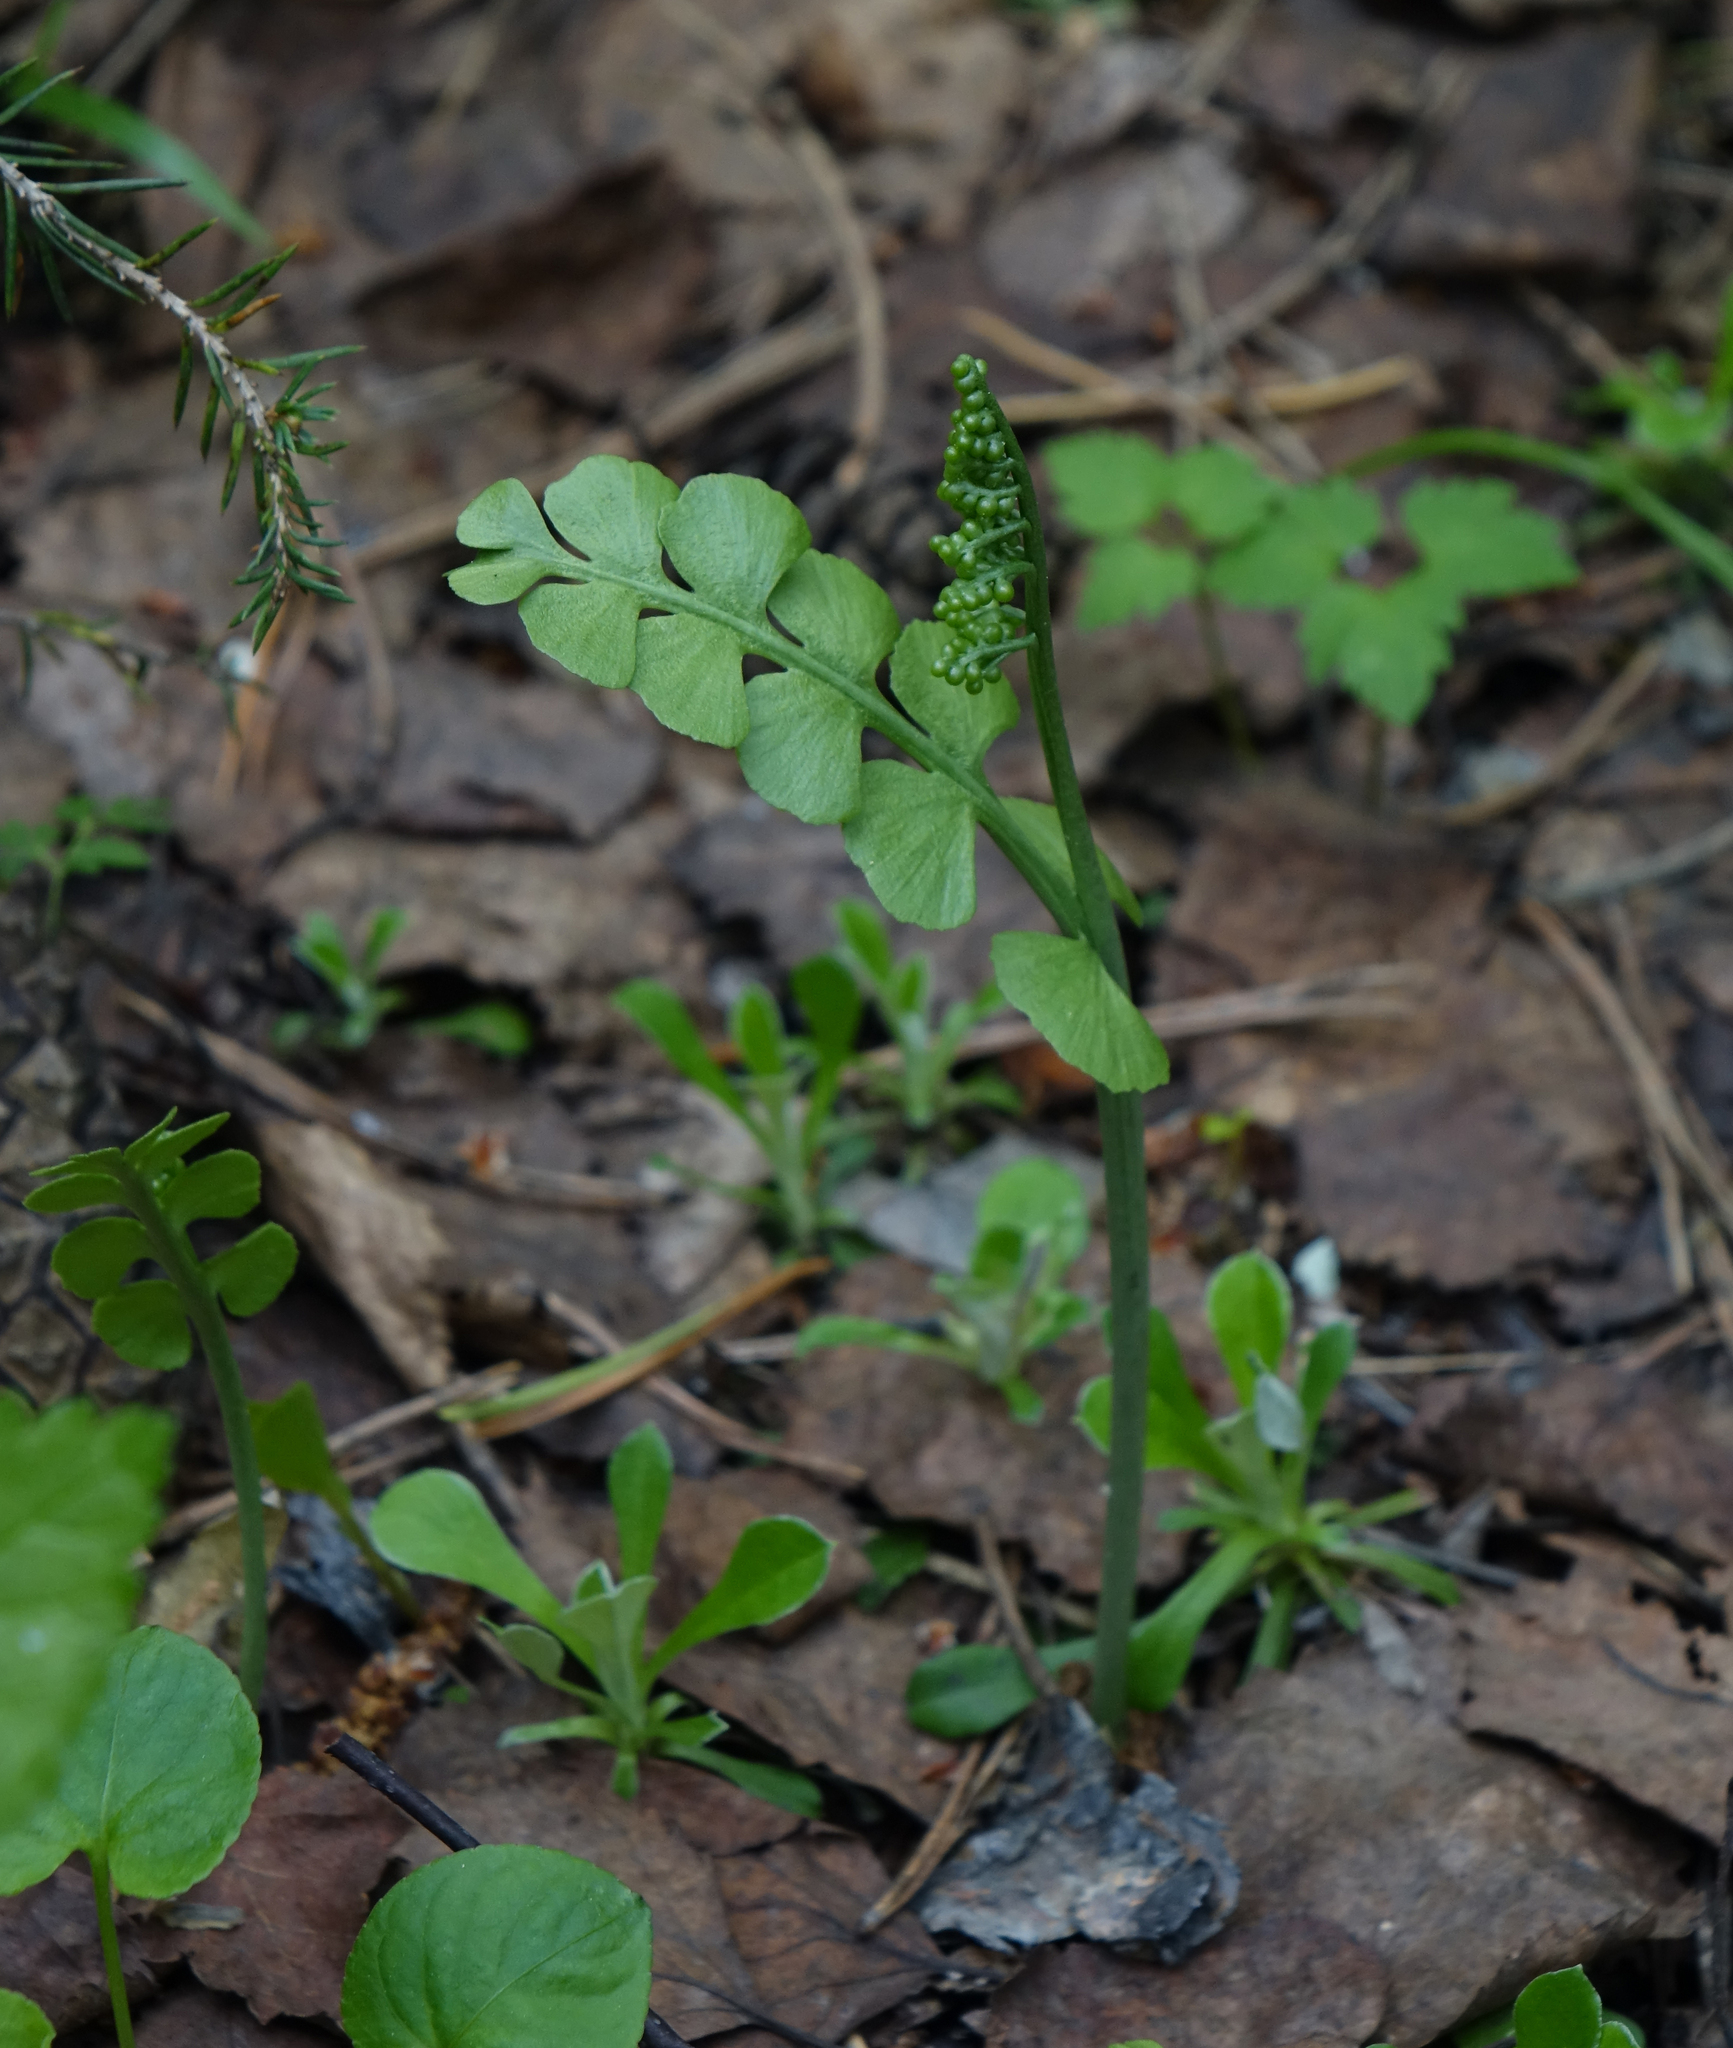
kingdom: Plantae
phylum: Tracheophyta
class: Polypodiopsida
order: Ophioglossales
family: Ophioglossaceae
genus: Botrychium
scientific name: Botrychium lunaria
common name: Moonwort
